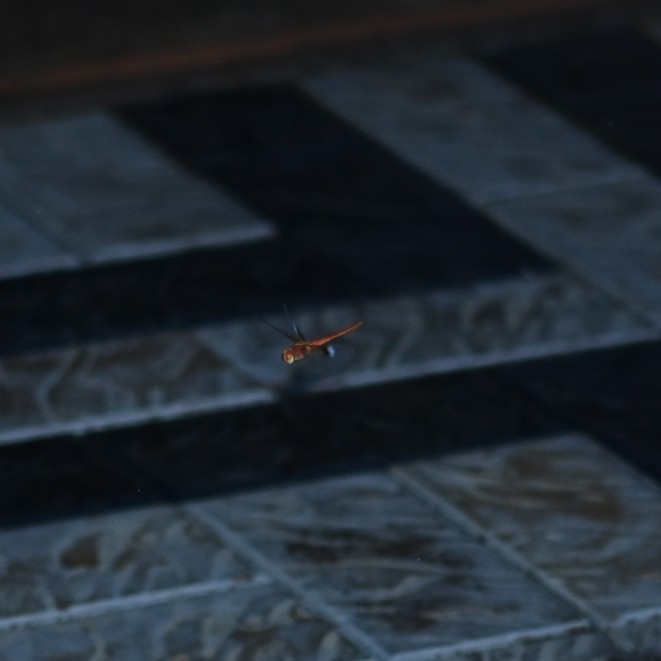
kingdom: Animalia
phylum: Arthropoda
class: Insecta
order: Odonata
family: Libellulidae
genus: Tholymis
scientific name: Tholymis tillarga
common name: Coral-tailed cloud wing
